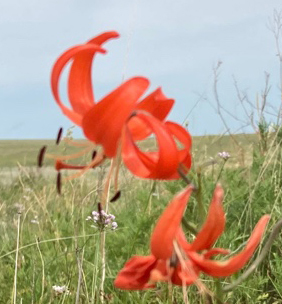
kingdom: Plantae
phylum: Tracheophyta
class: Liliopsida
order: Liliales
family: Liliaceae
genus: Lilium
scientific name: Lilium pumilum
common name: Coral lily
